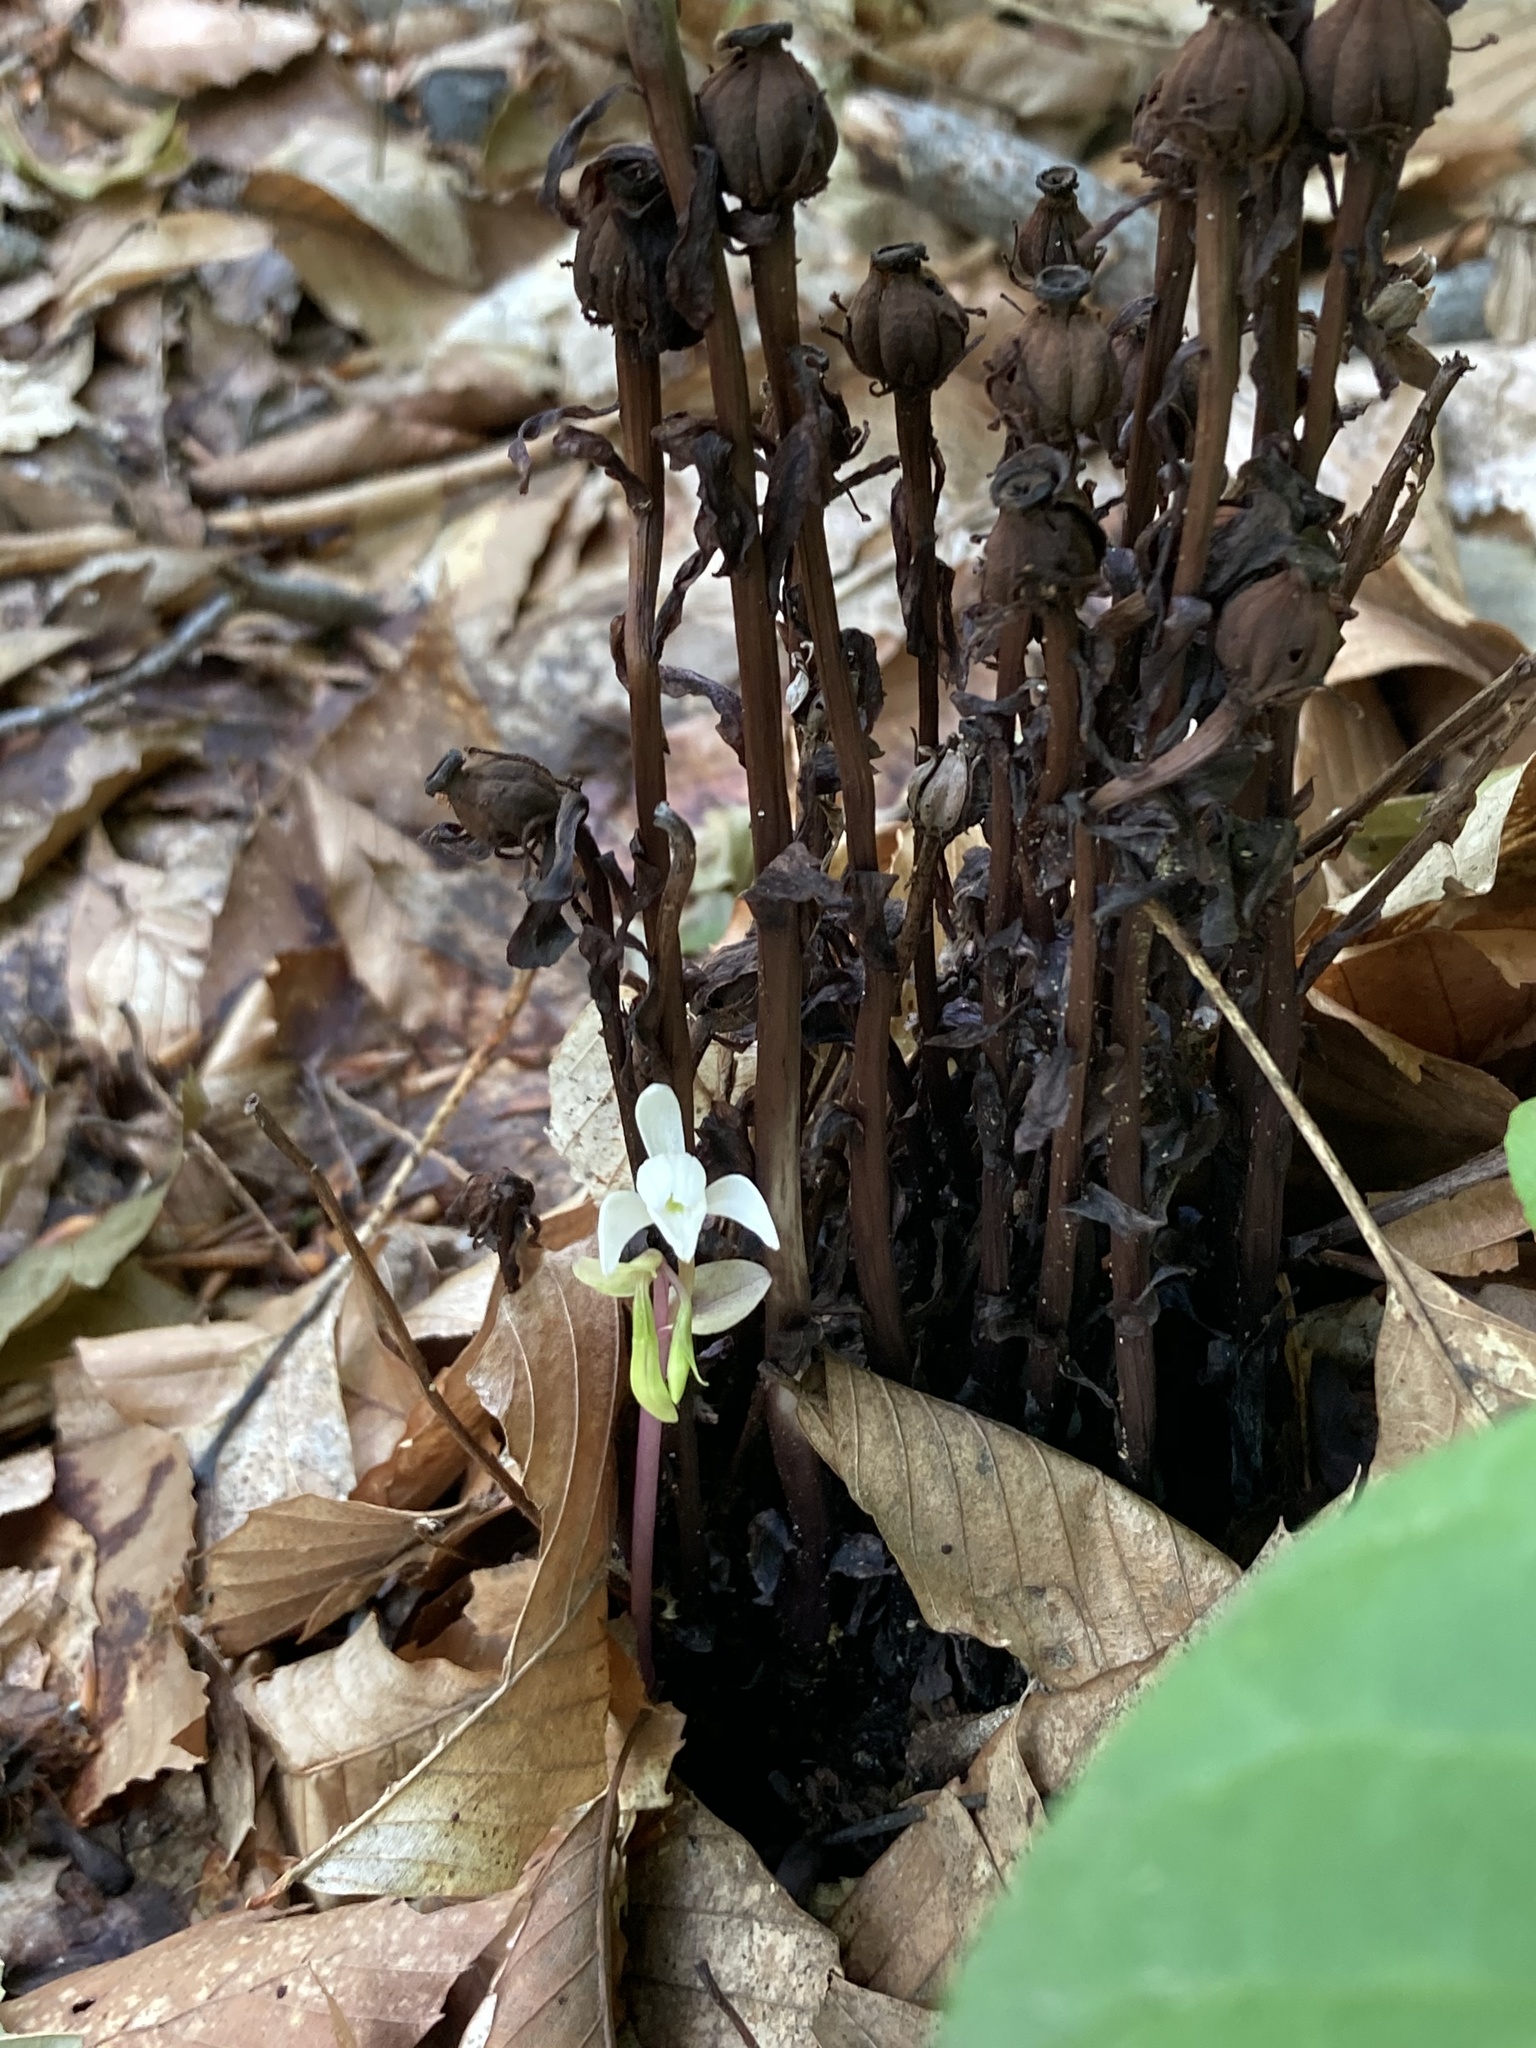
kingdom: Plantae
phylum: Tracheophyta
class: Magnoliopsida
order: Ericales
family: Ericaceae
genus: Monotropa
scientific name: Monotropa uniflora
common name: Convulsion root
